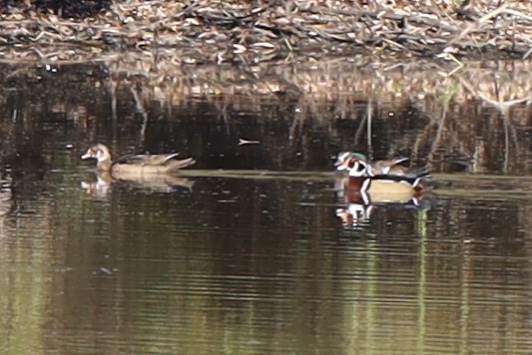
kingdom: Animalia
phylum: Chordata
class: Aves
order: Anseriformes
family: Anatidae
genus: Aix
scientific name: Aix sponsa
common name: Wood duck
